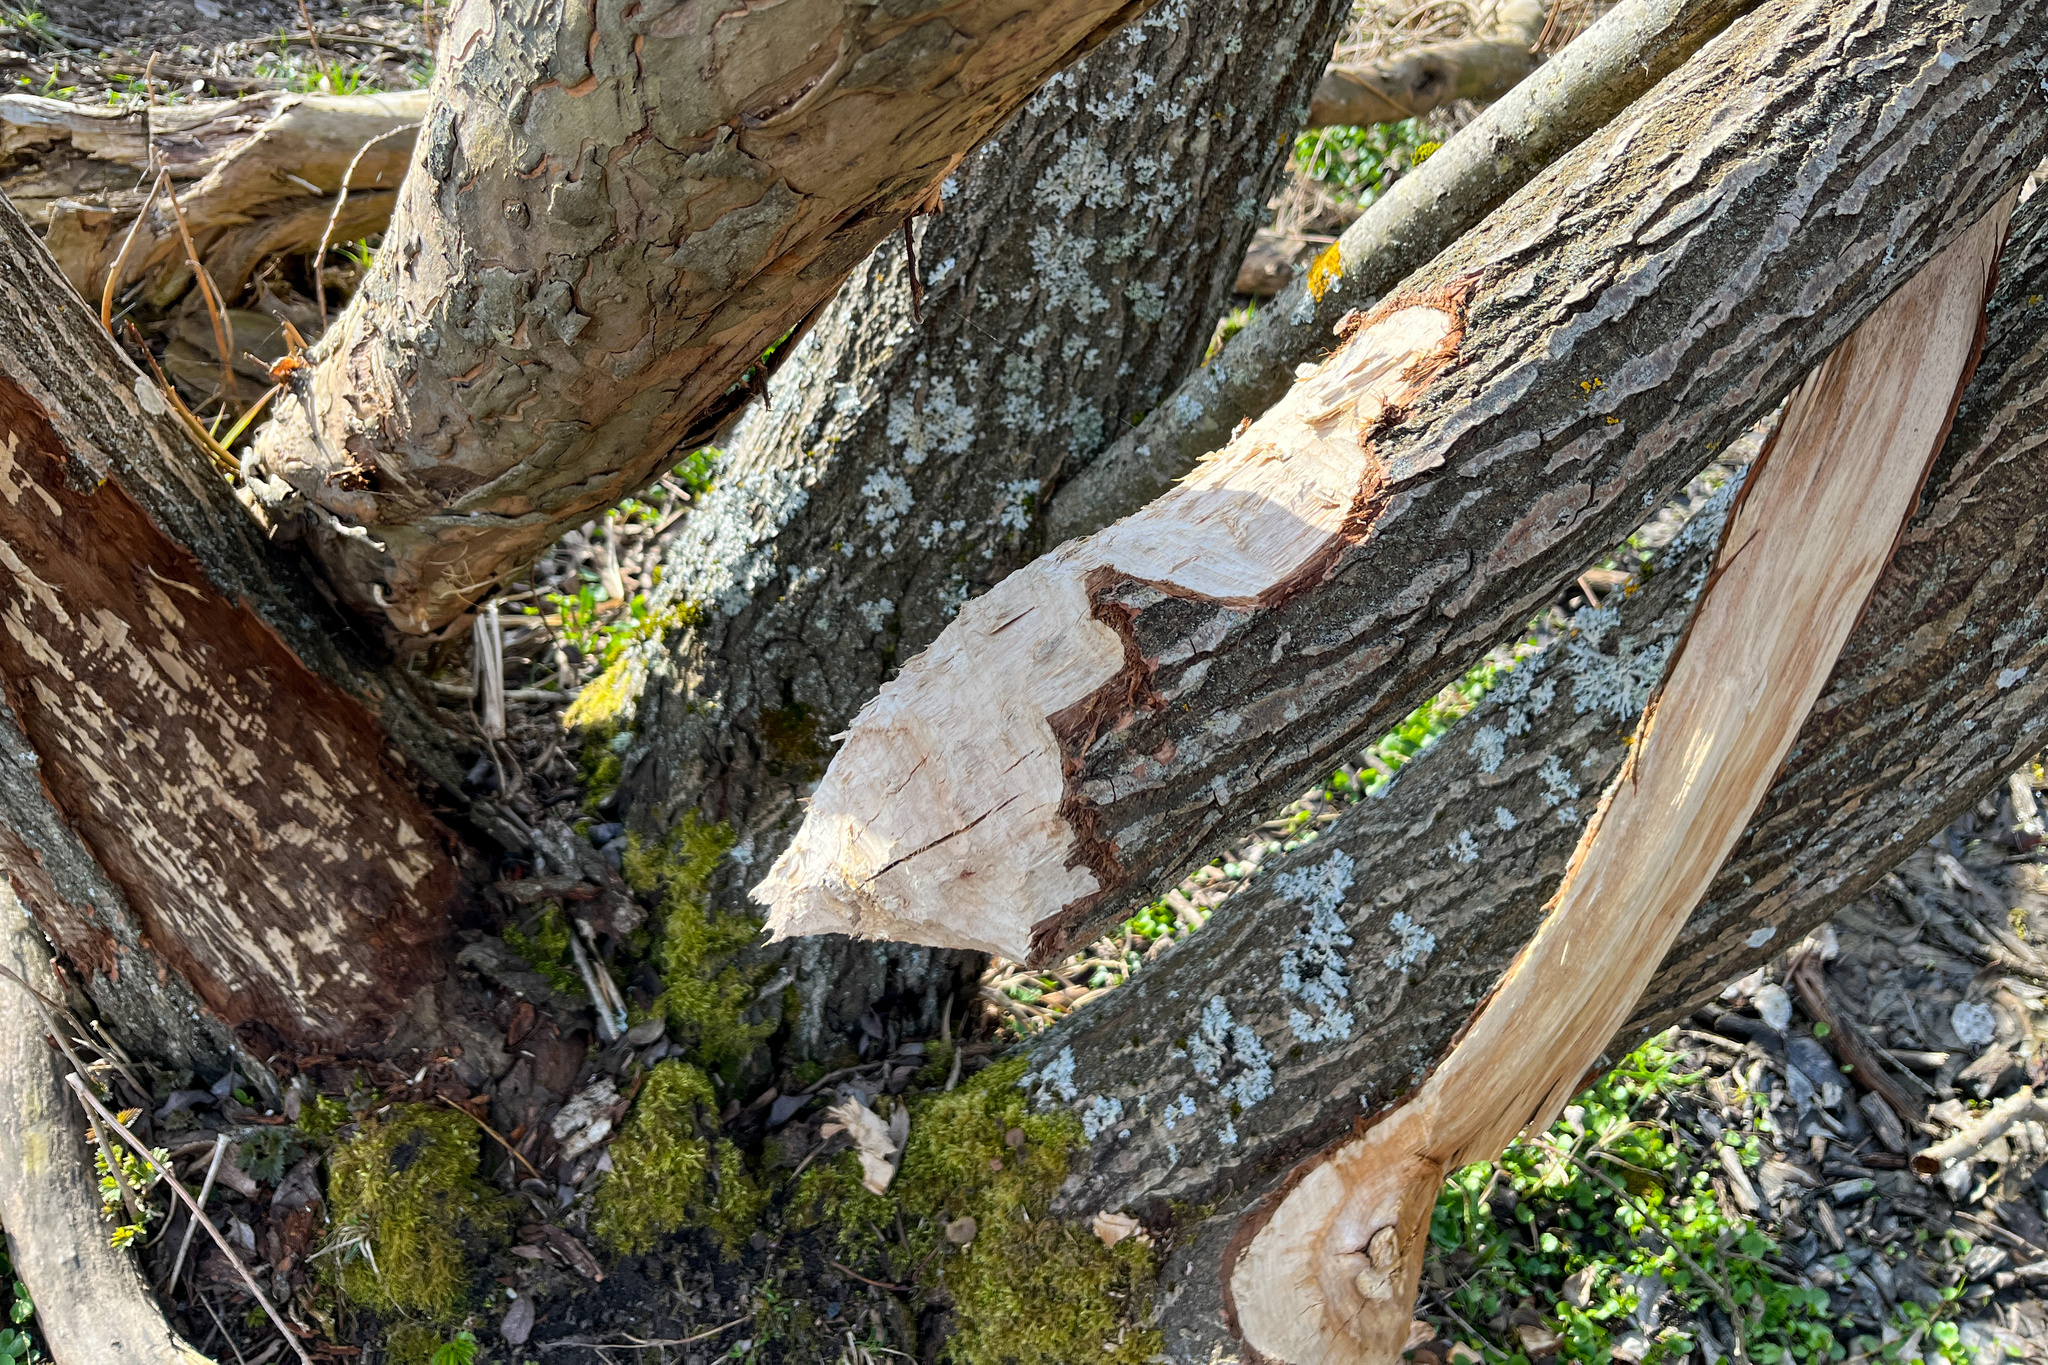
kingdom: Animalia
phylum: Chordata
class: Mammalia
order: Rodentia
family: Castoridae
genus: Castor
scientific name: Castor fiber
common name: Eurasian beaver
